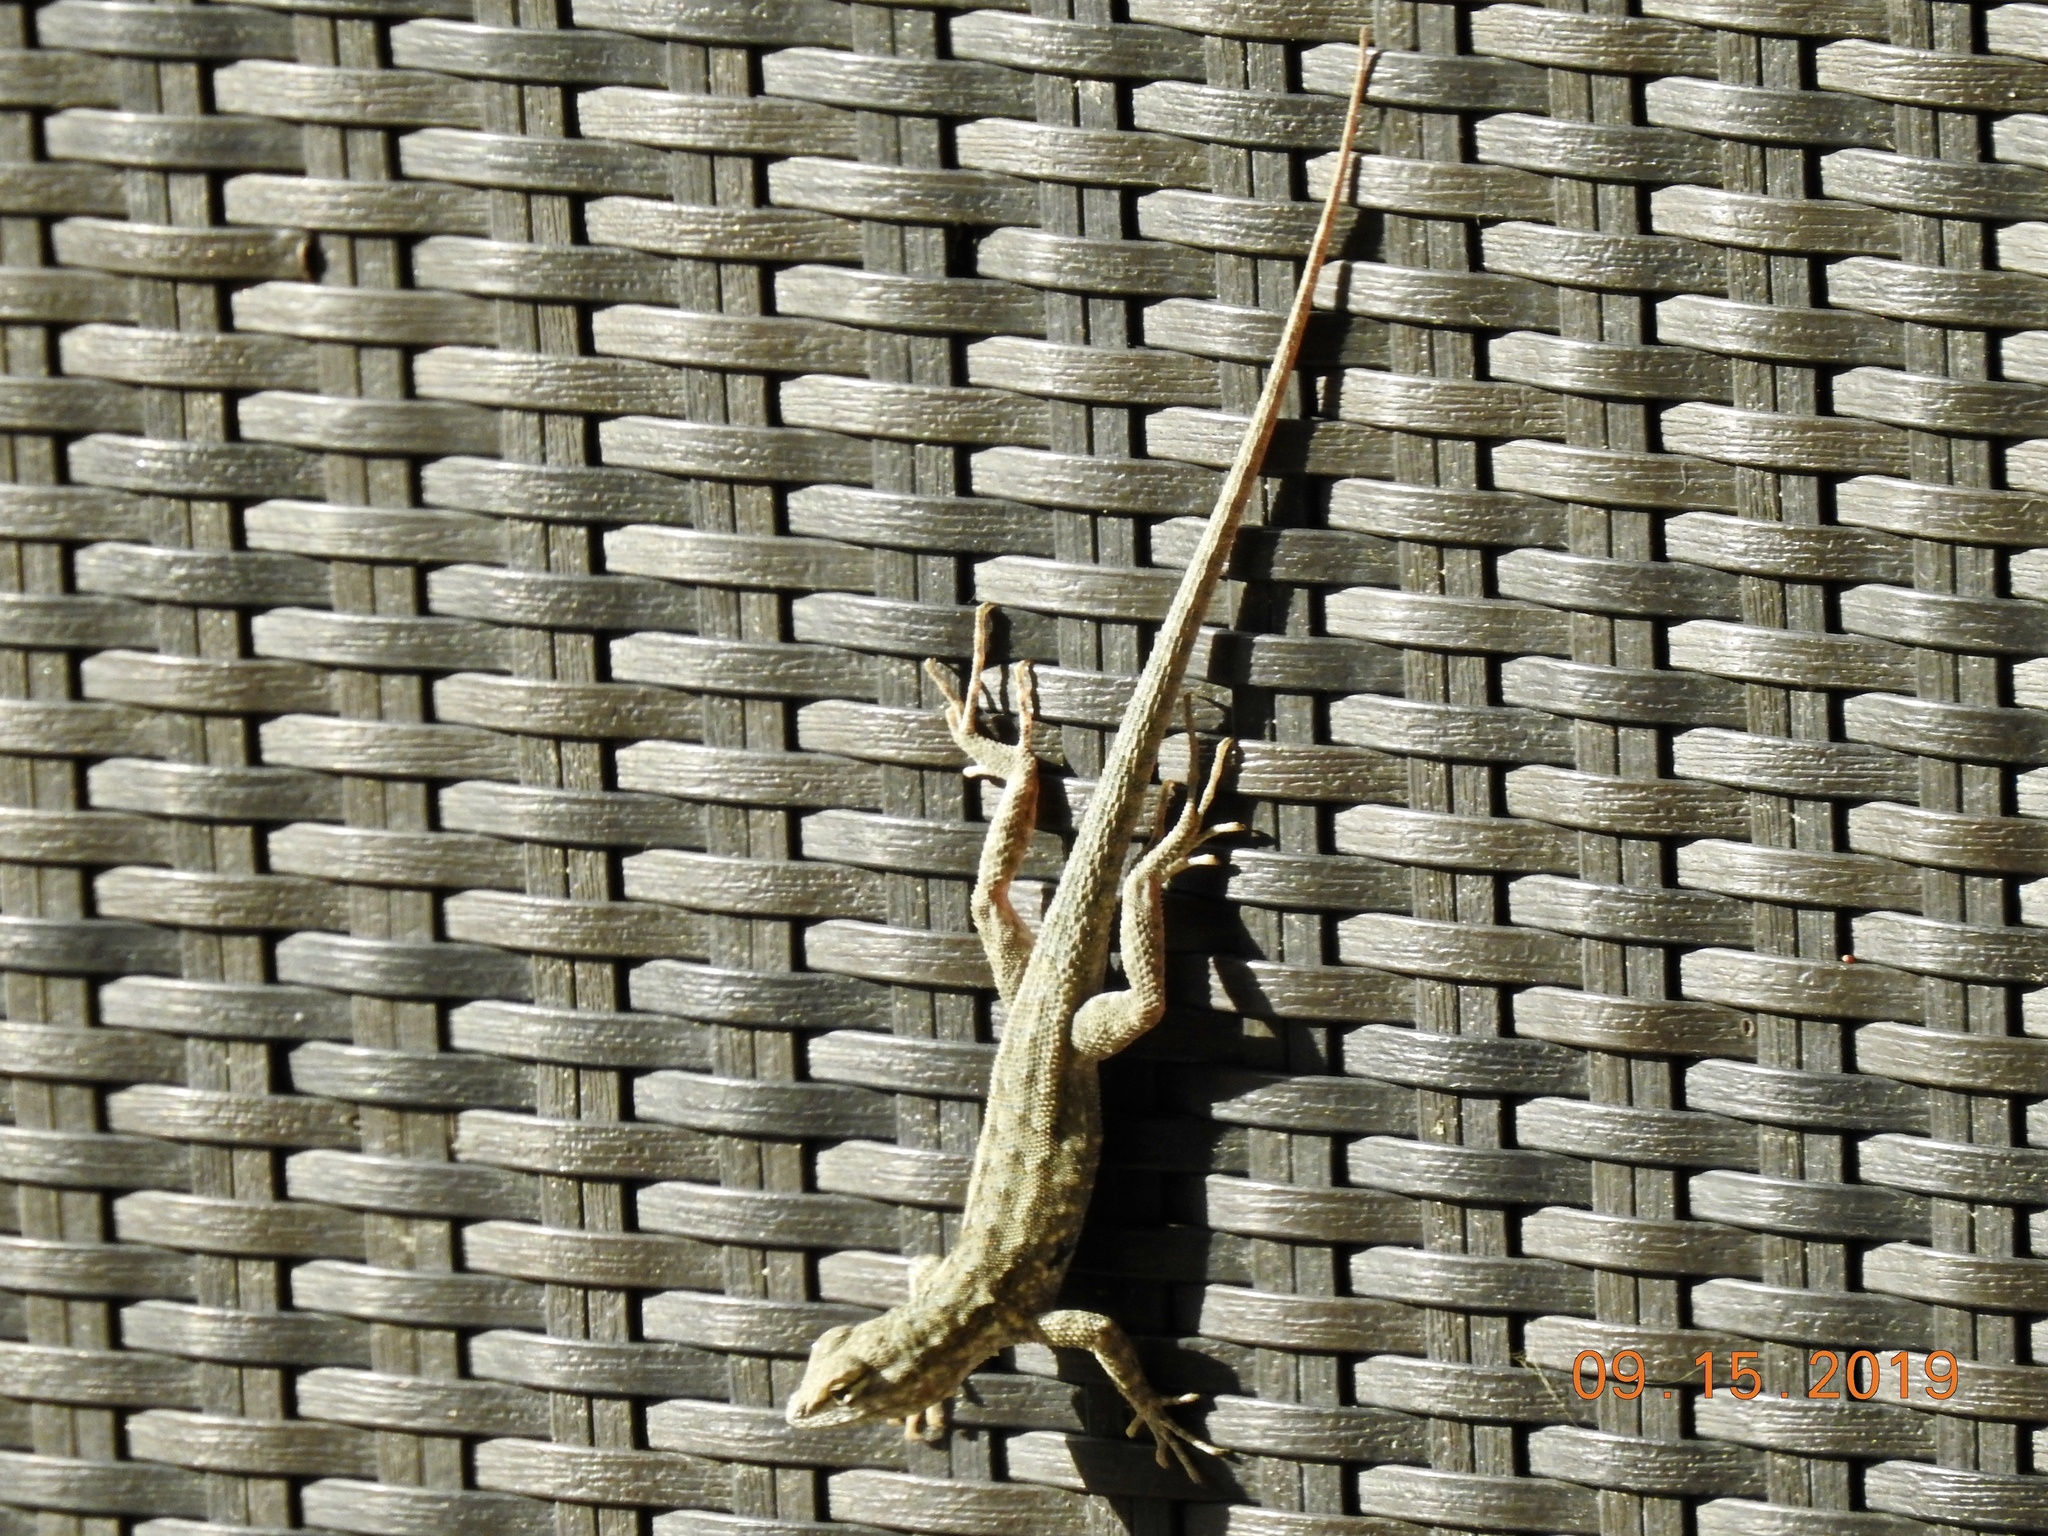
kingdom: Animalia
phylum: Chordata
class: Squamata
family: Phrynosomatidae
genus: Uta
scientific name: Uta stansburiana
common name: Side-blotched lizard
